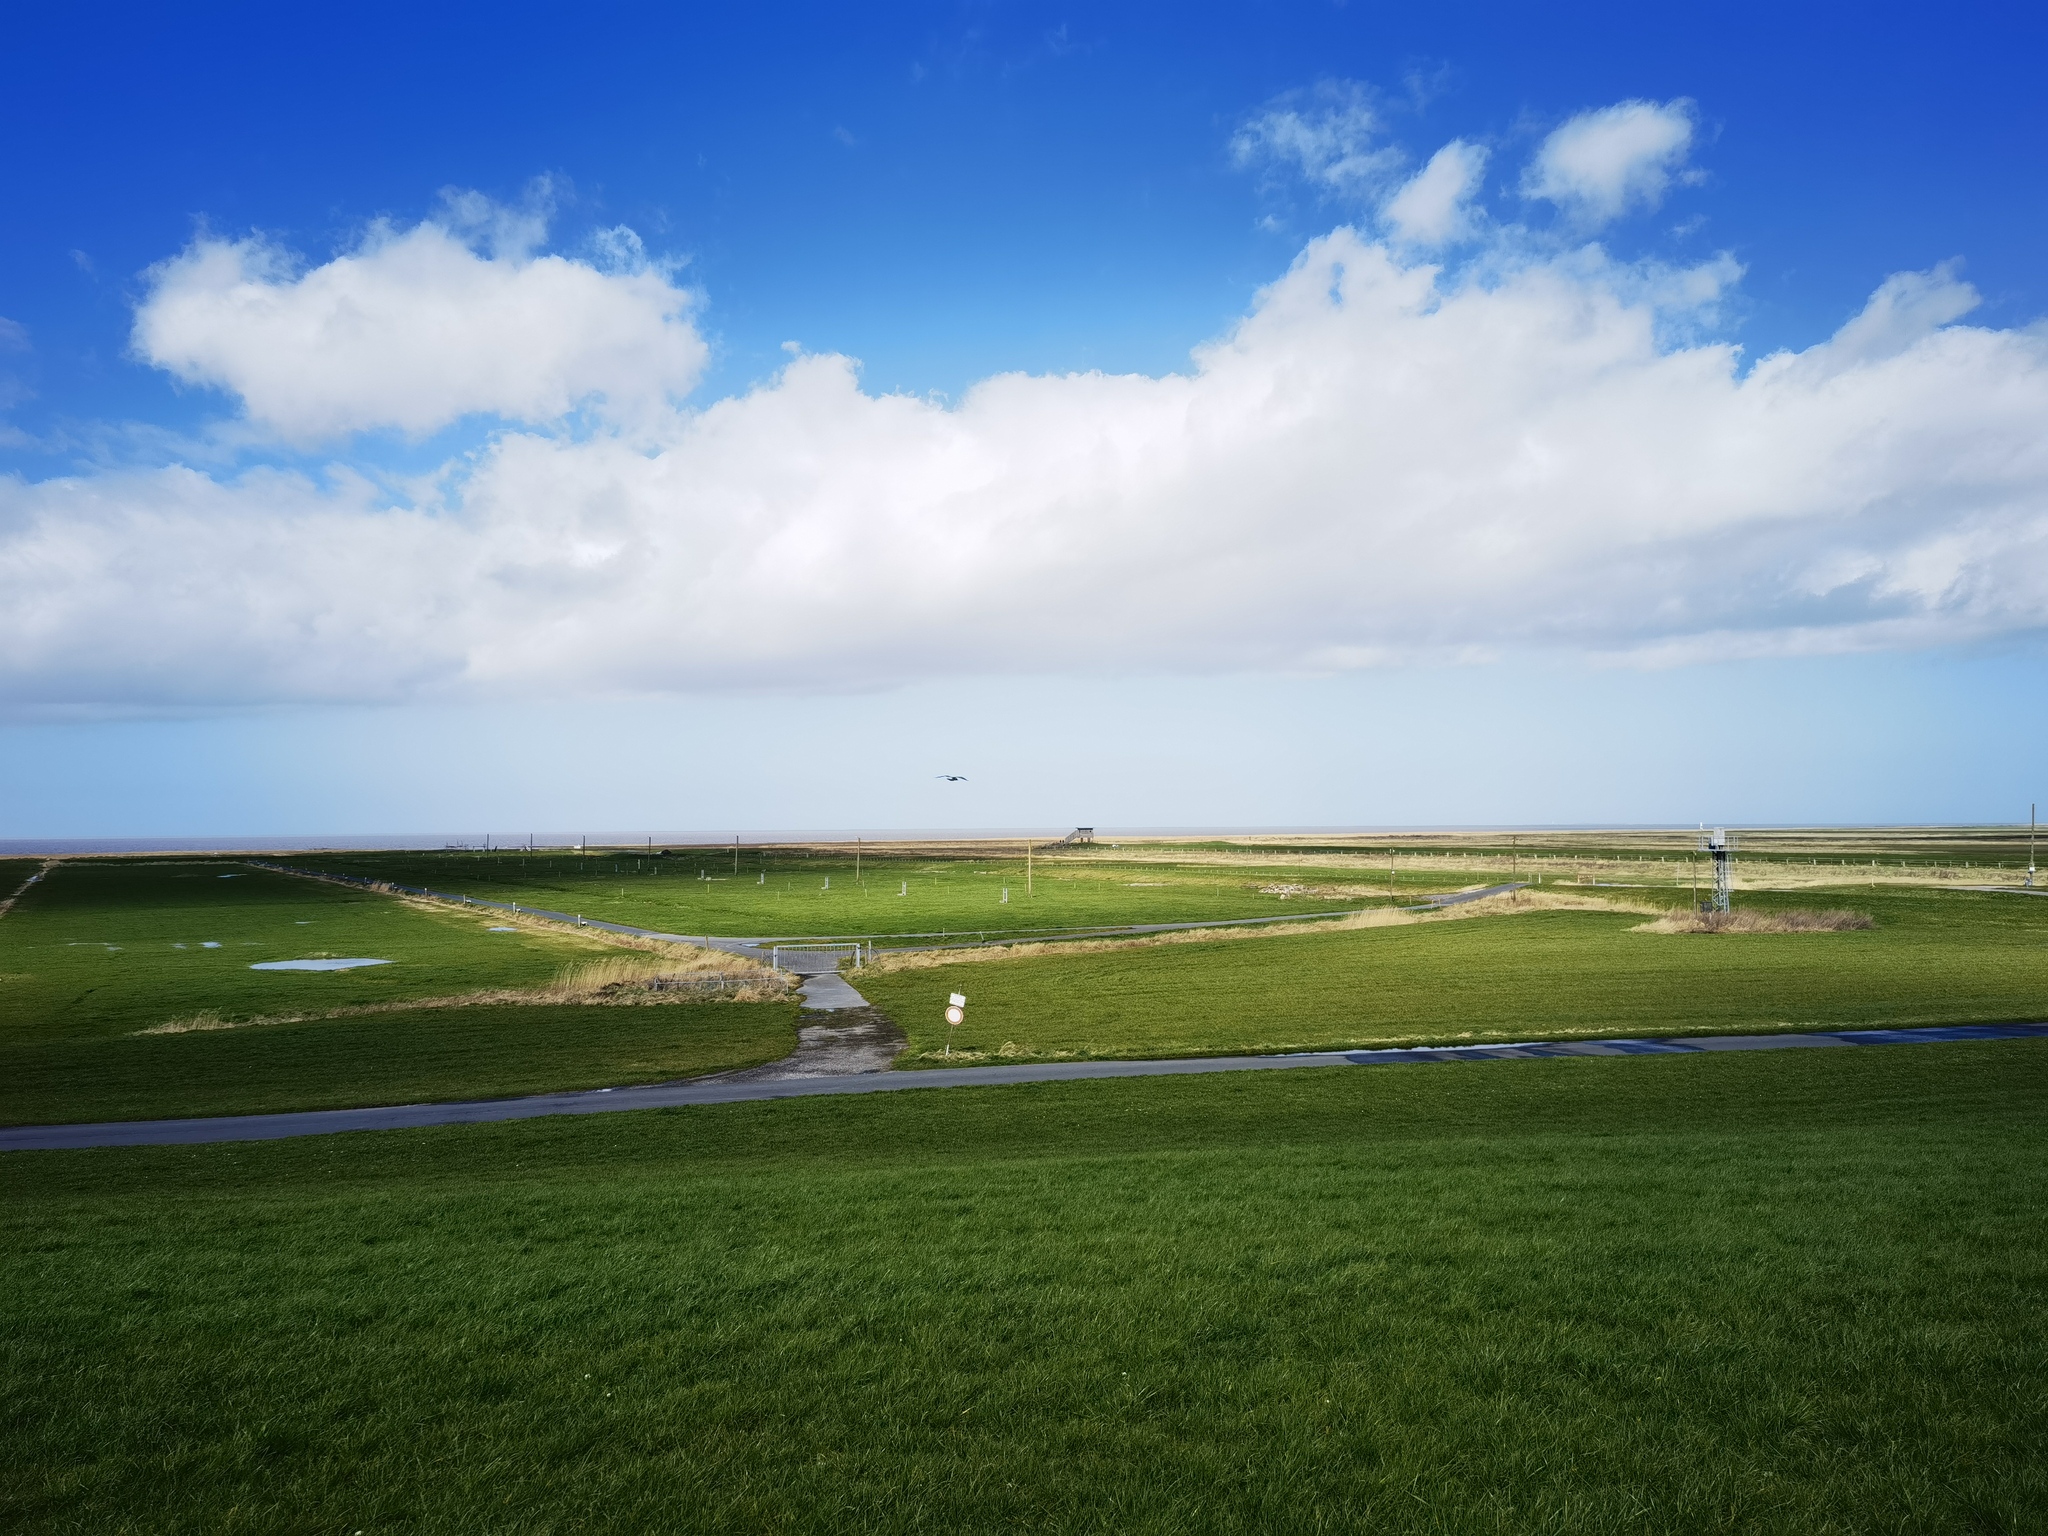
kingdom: Animalia
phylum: Chordata
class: Aves
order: Charadriiformes
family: Laridae
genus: Chroicocephalus
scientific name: Chroicocephalus ridibundus
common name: Black-headed gull
